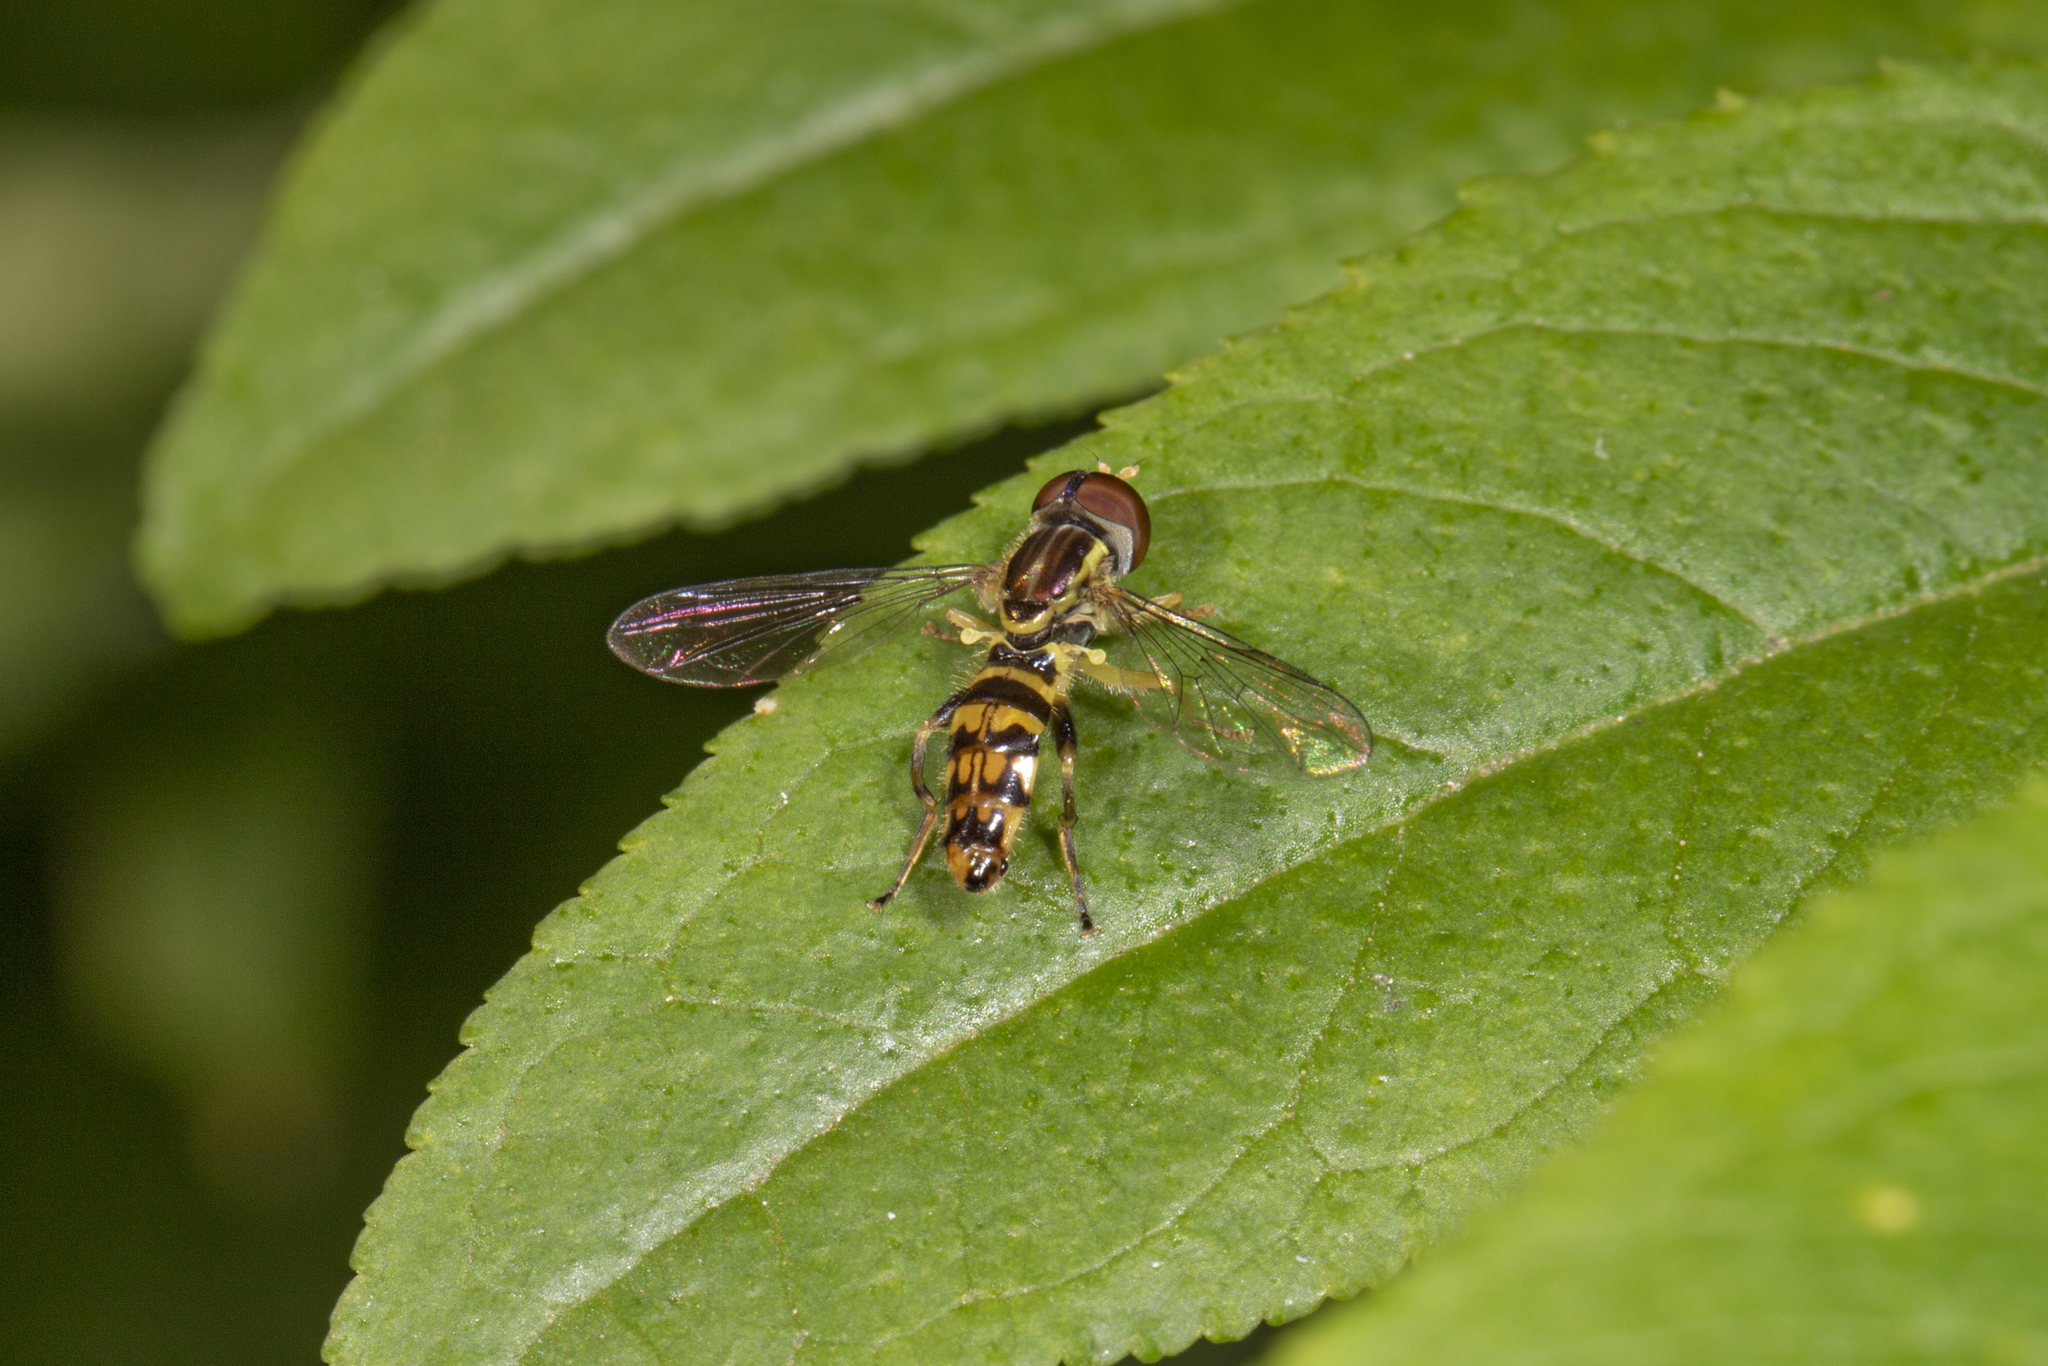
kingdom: Animalia
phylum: Arthropoda
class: Insecta
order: Diptera
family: Syrphidae
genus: Toxomerus
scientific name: Toxomerus geminatus
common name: Eastern calligrapher
